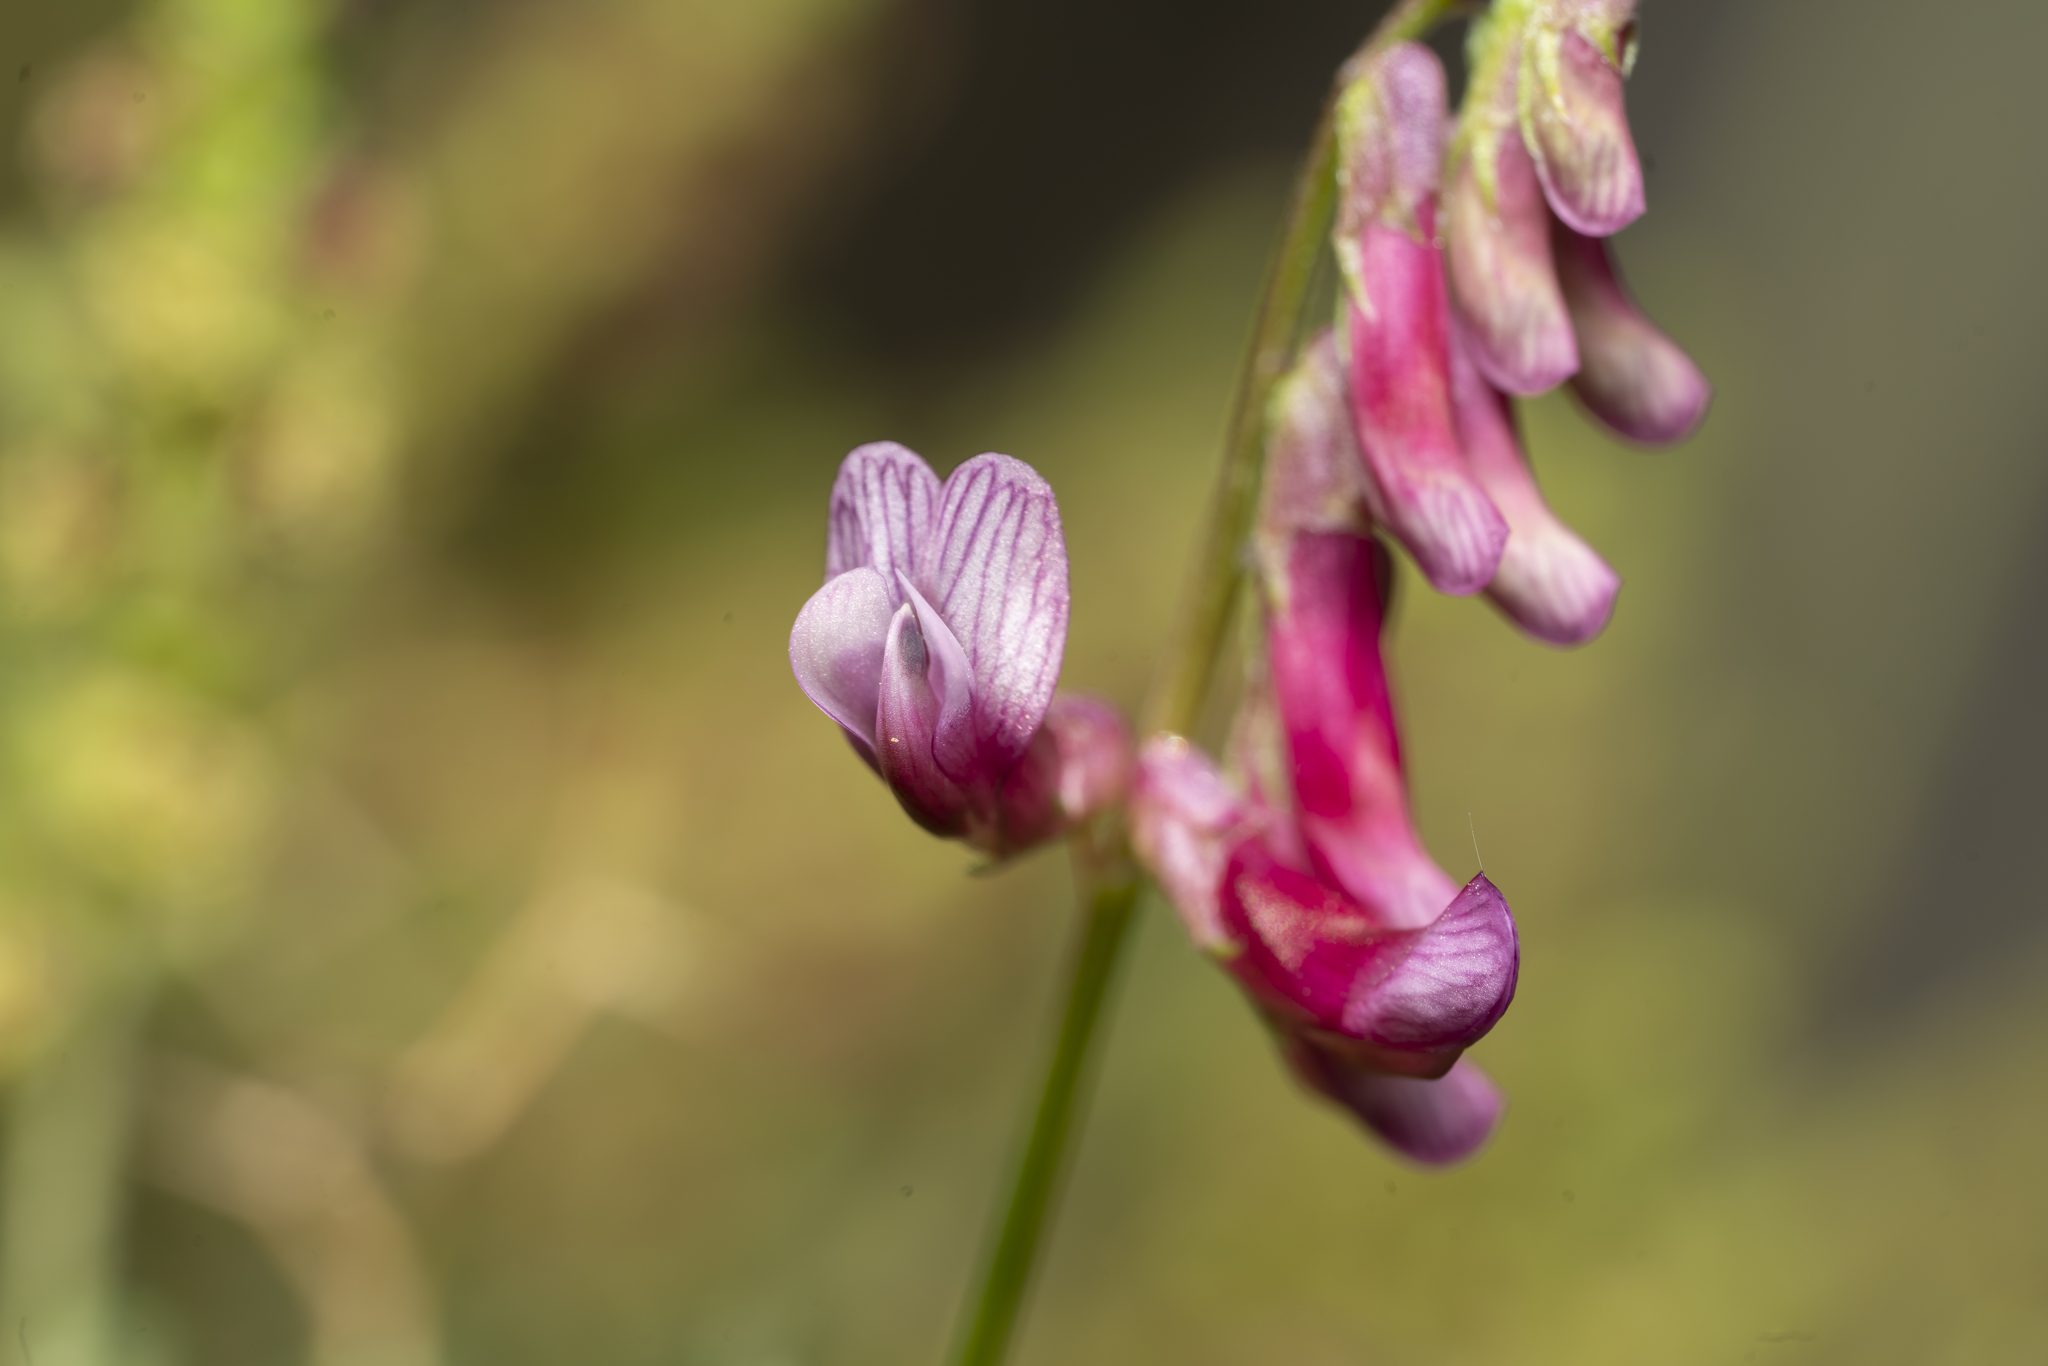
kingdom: Plantae
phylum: Tracheophyta
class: Magnoliopsida
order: Fabales
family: Fabaceae
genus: Vicia
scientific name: Vicia eriocarpa
